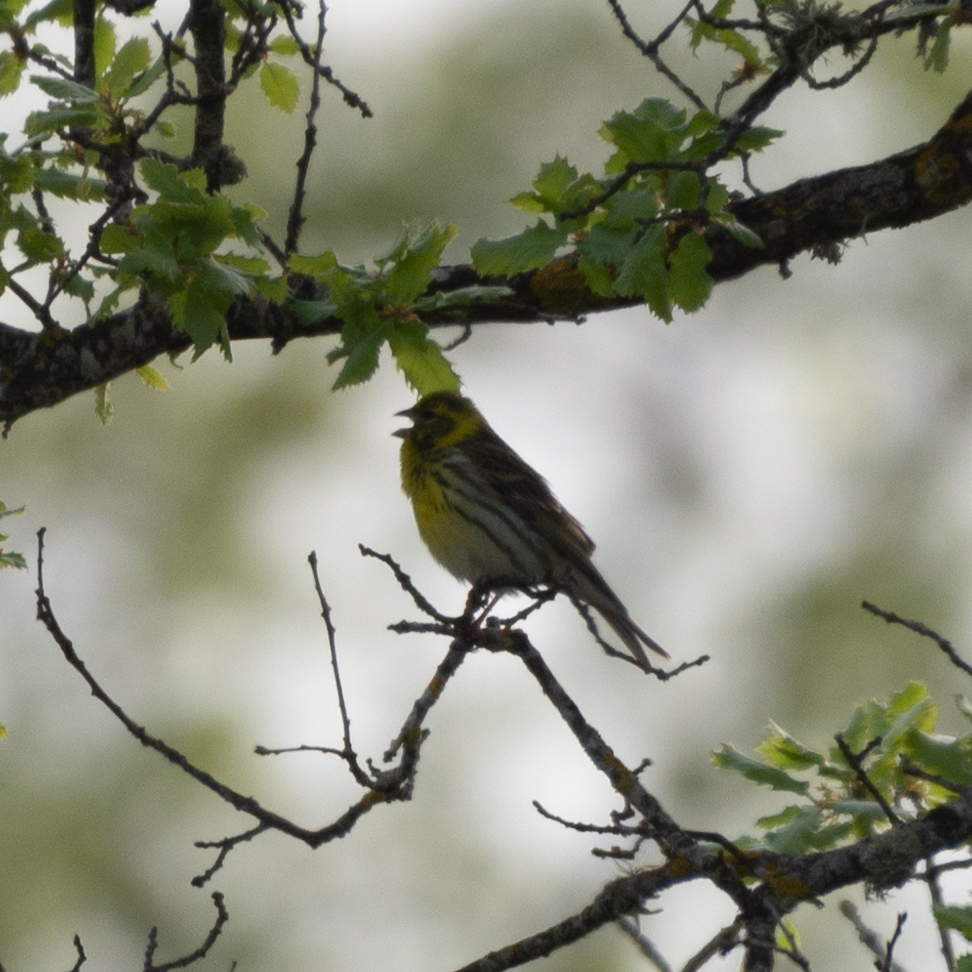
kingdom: Animalia
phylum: Chordata
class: Aves
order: Passeriformes
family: Fringillidae
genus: Serinus
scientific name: Serinus serinus
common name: European serin
